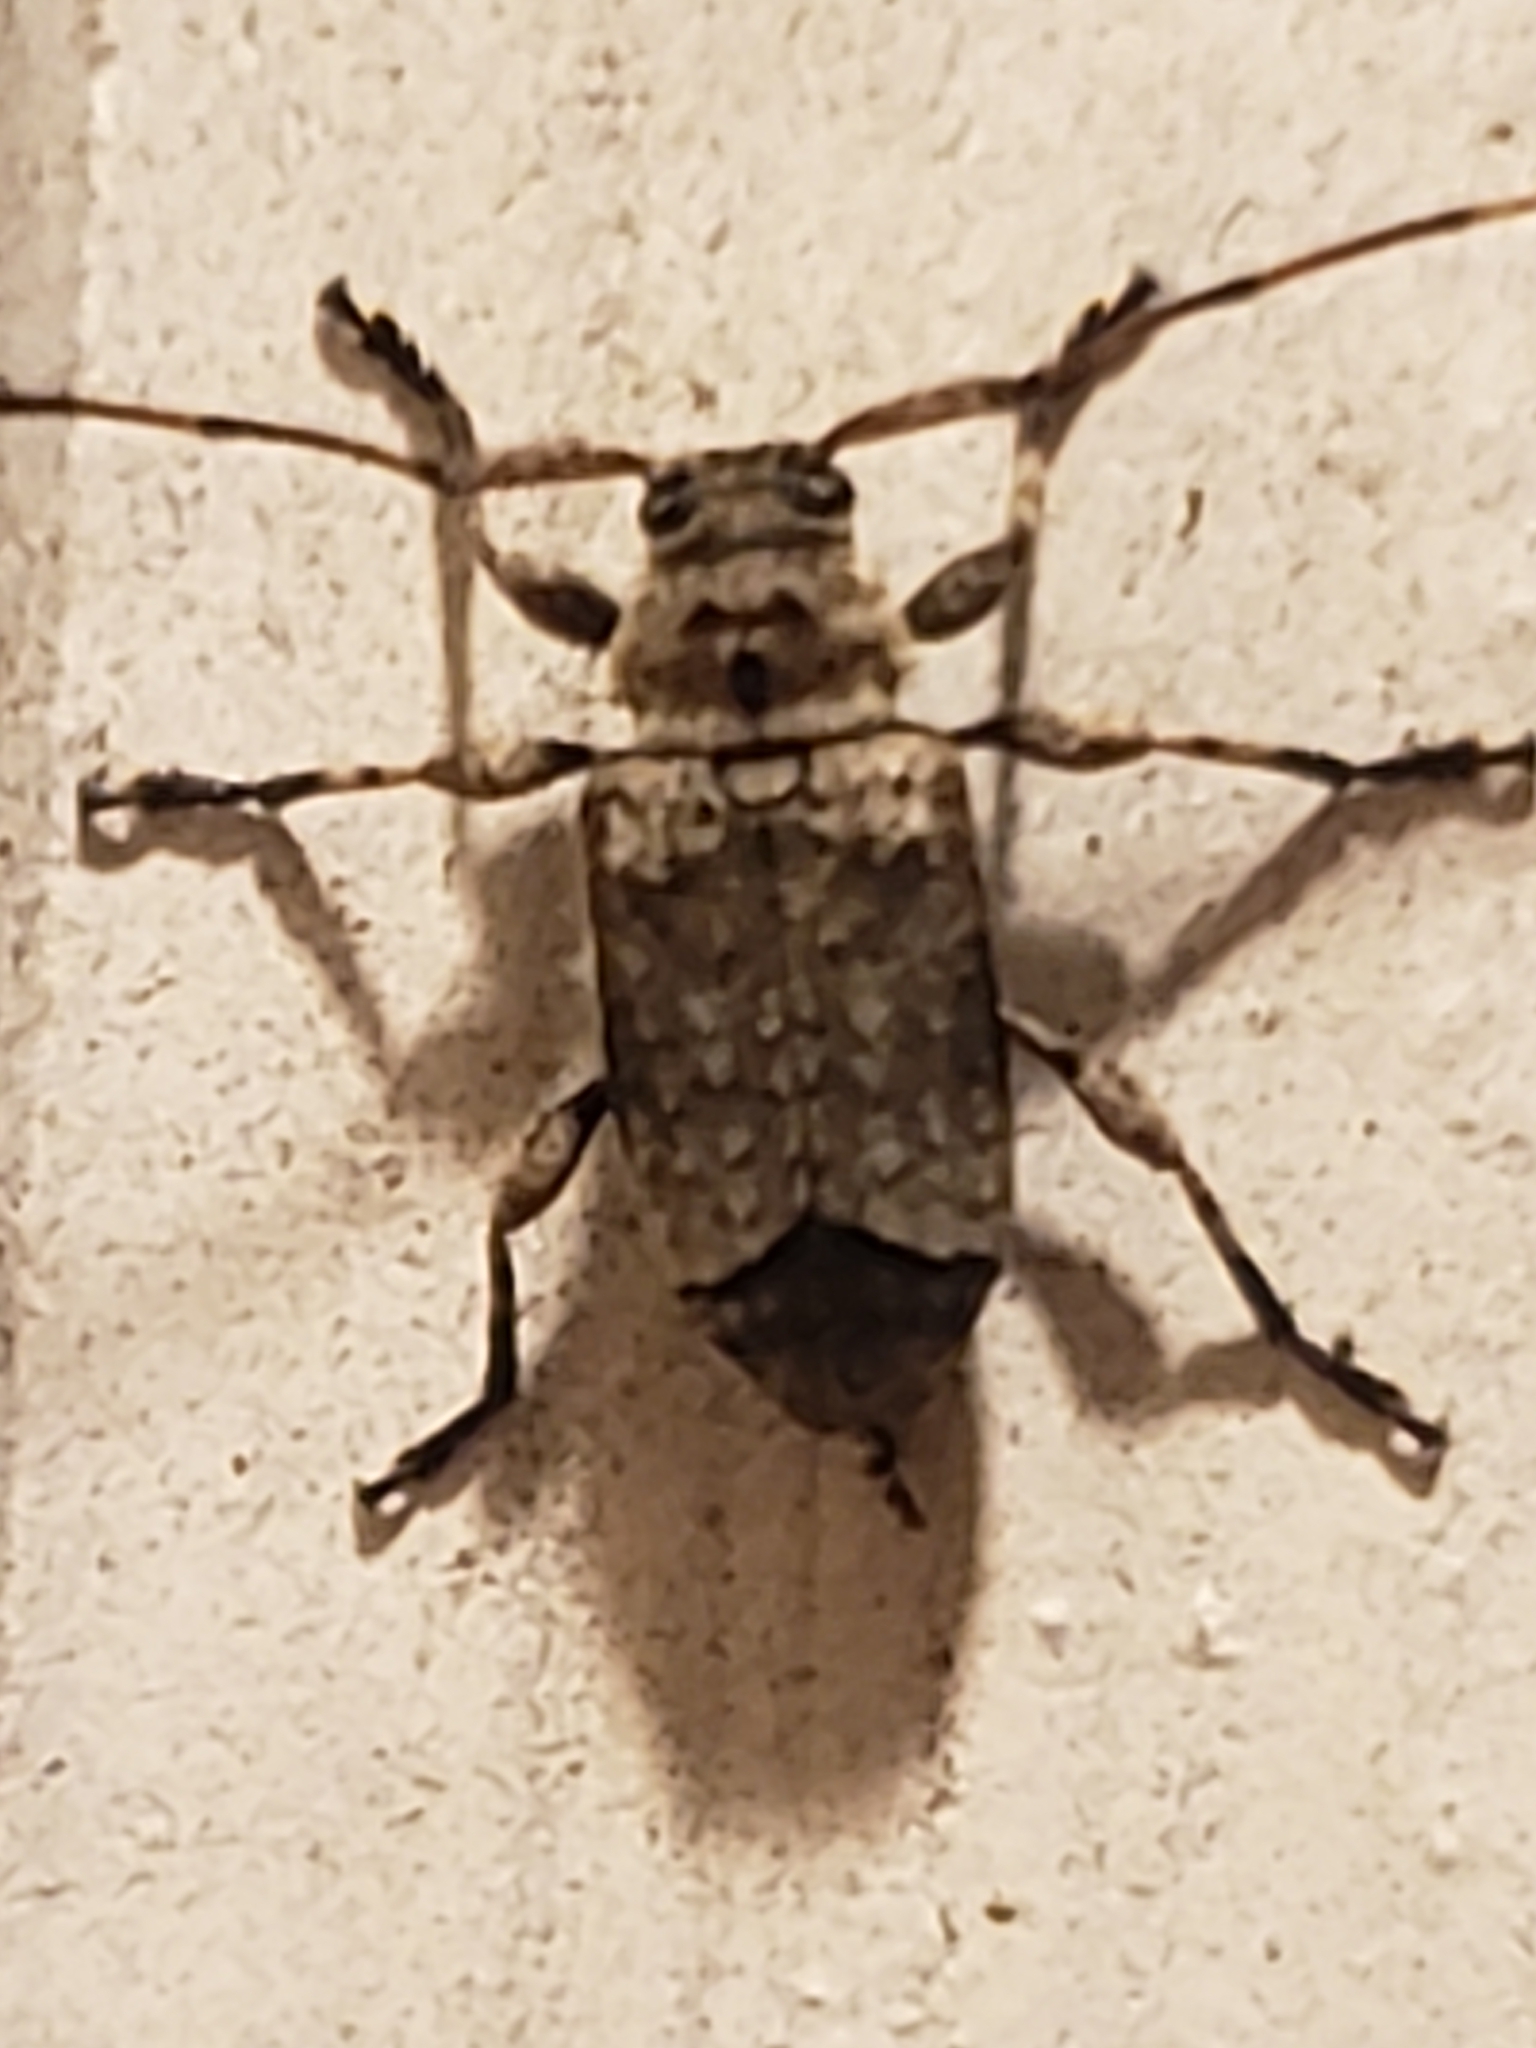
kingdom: Animalia
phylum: Arthropoda
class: Insecta
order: Coleoptera
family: Cerambycidae
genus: Sternidius
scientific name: Sternidius mimeticus
